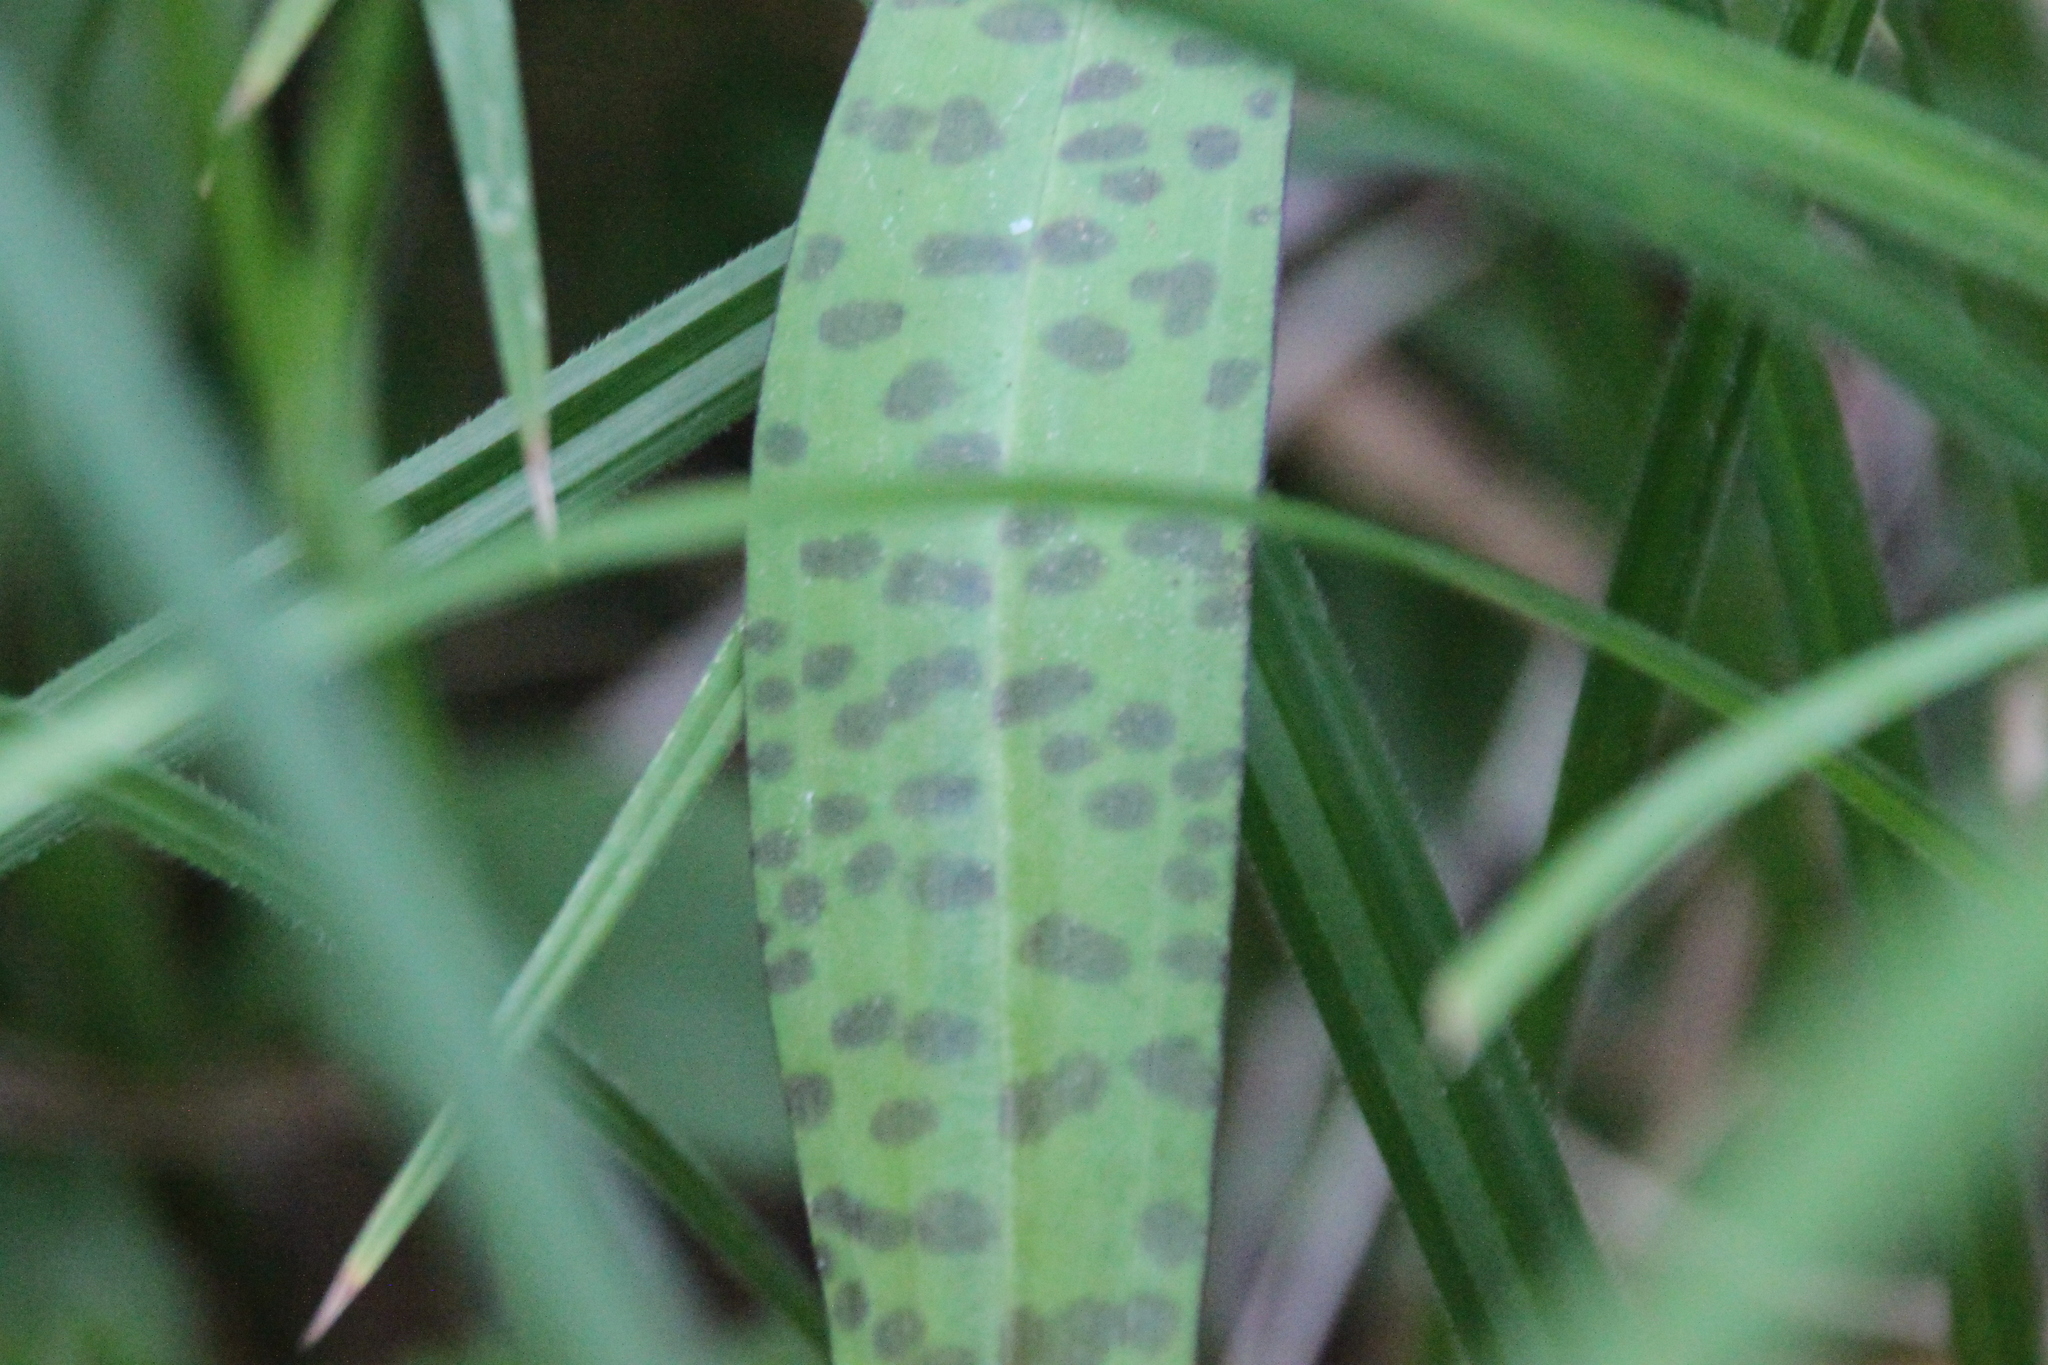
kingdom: Plantae
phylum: Tracheophyta
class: Liliopsida
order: Asparagales
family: Orchidaceae
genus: Dactylorhiza
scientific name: Dactylorhiza maculata
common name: Heath spotted-orchid
